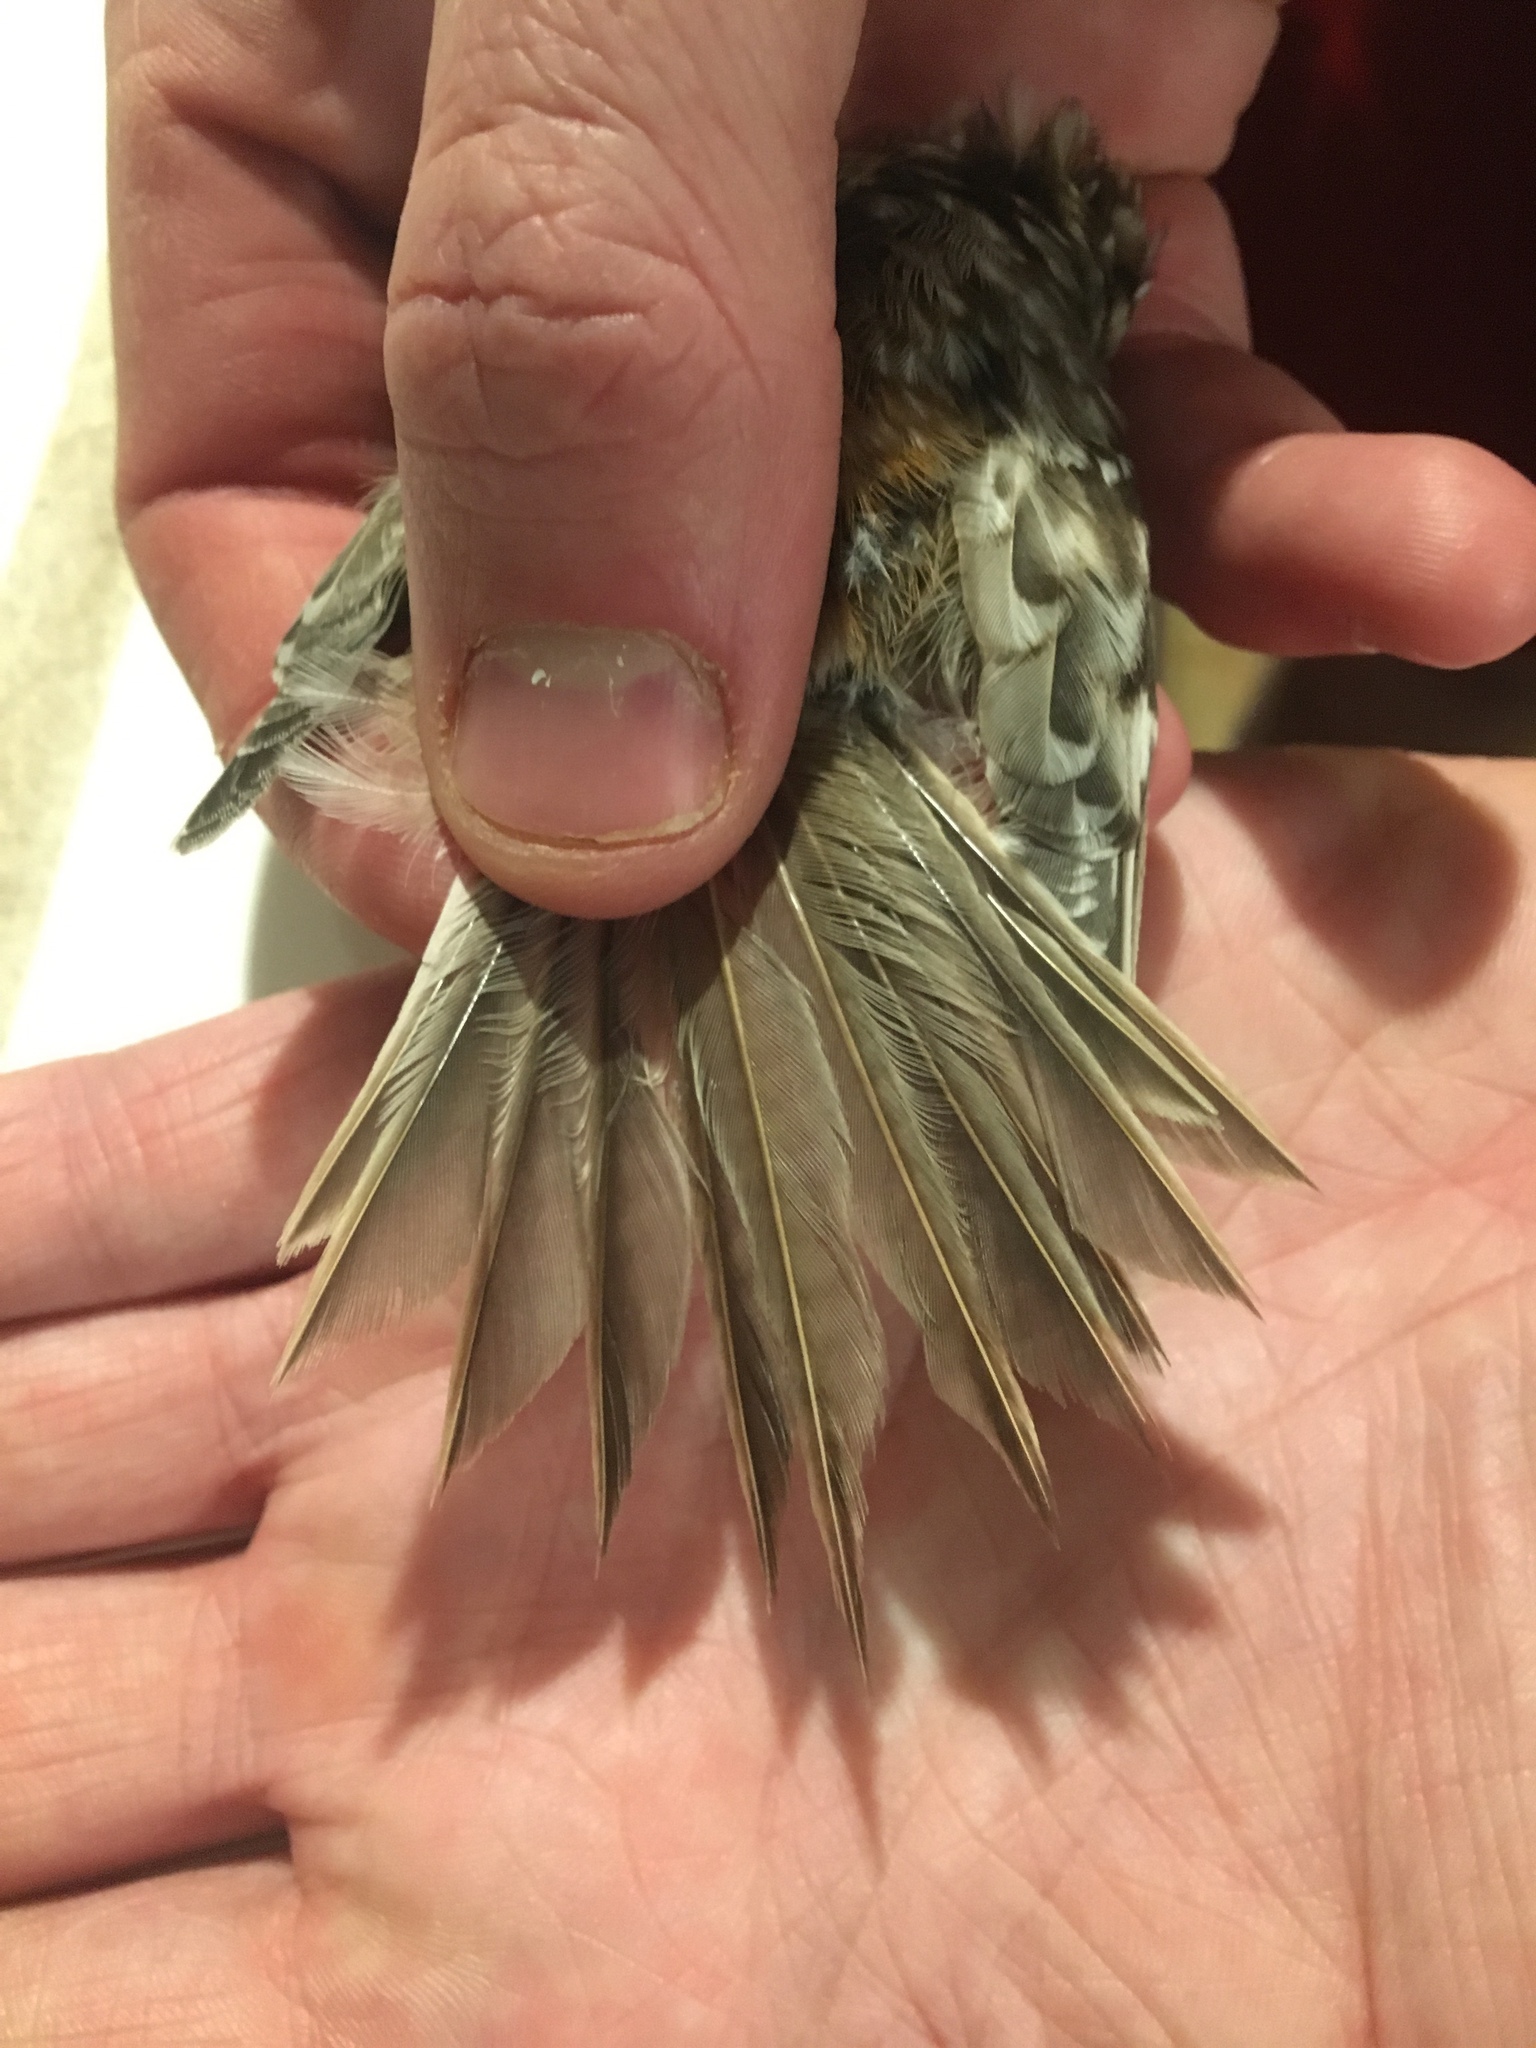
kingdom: Animalia
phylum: Chordata
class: Aves
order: Passeriformes
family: Certhiidae
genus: Certhia
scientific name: Certhia americana
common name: Brown creeper
